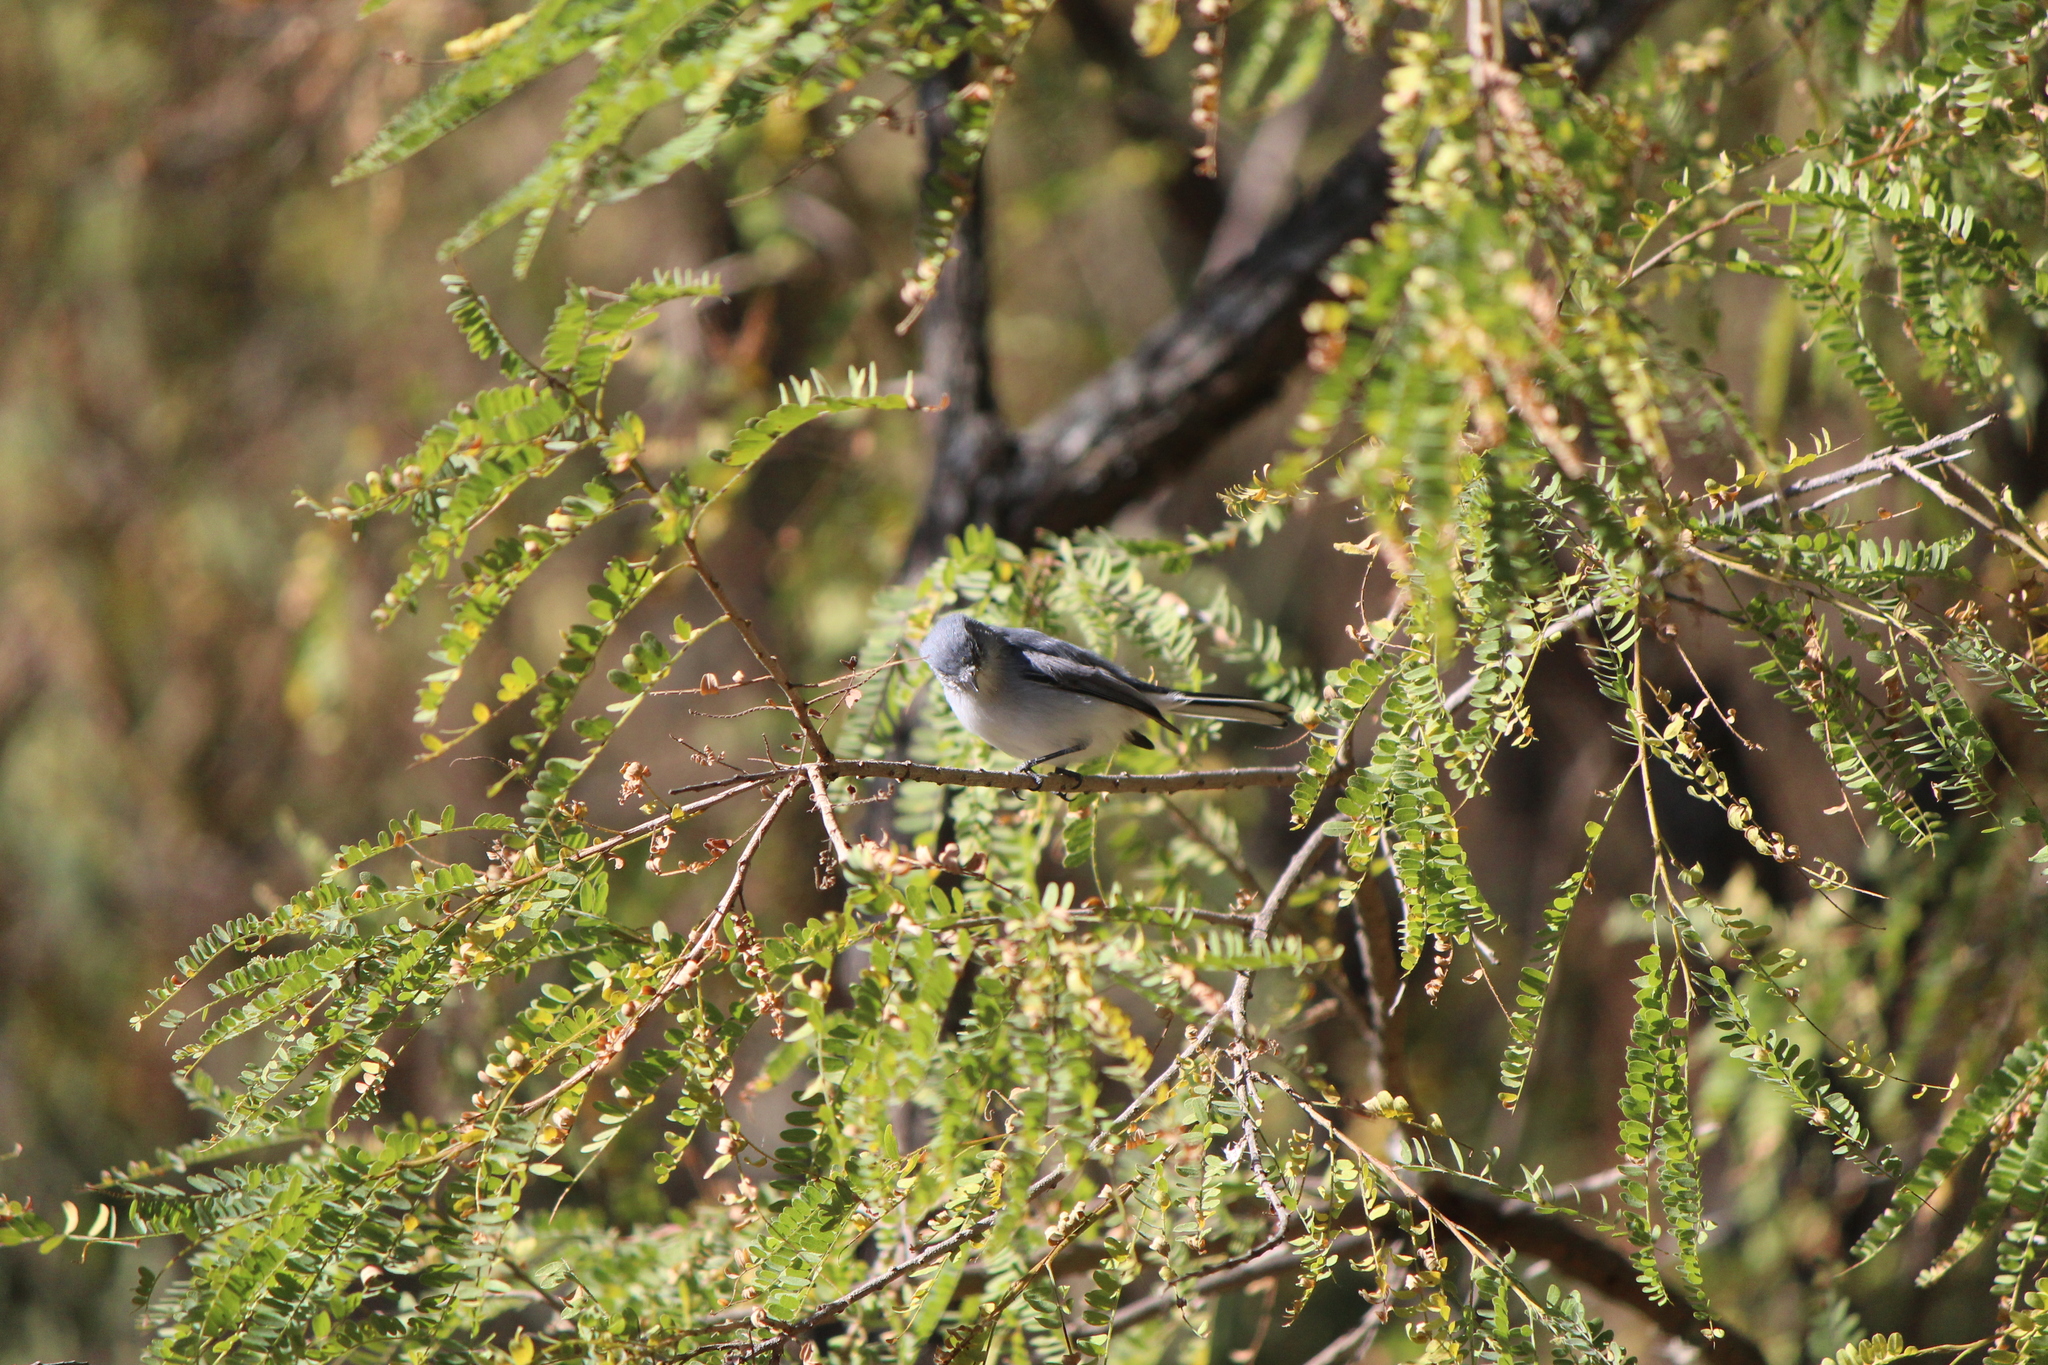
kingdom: Animalia
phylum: Chordata
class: Aves
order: Passeriformes
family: Polioptilidae
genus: Polioptila
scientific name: Polioptila caerulea
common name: Blue-gray gnatcatcher
